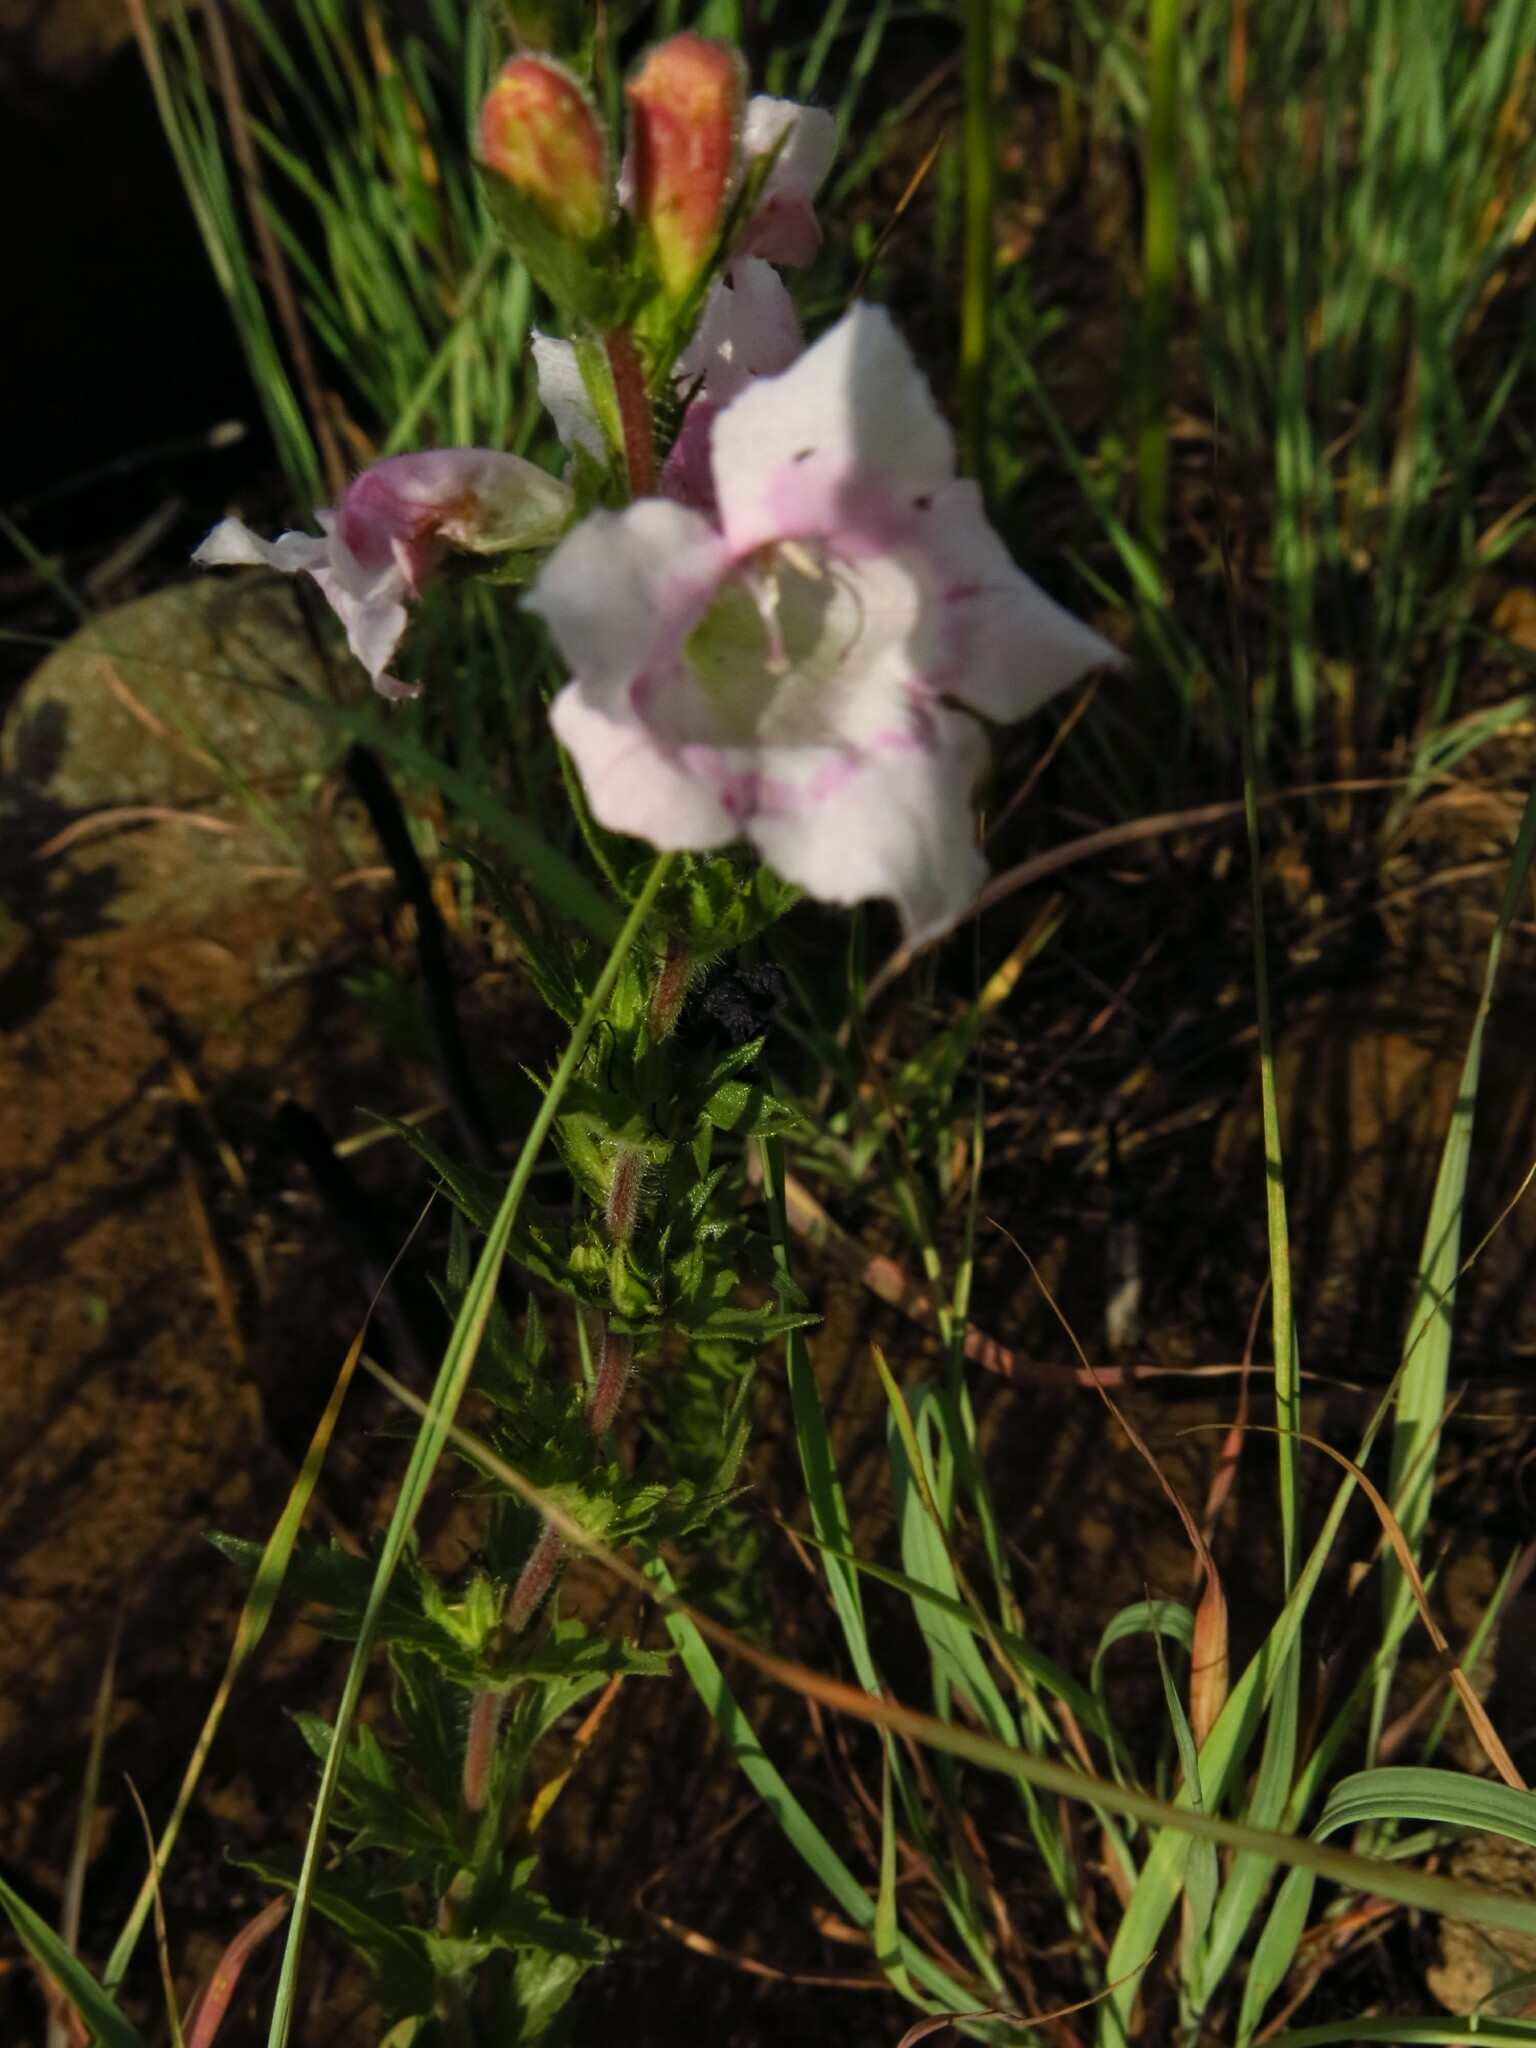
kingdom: Plantae
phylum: Tracheophyta
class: Magnoliopsida
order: Lamiales
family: Orobanchaceae
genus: Graderia
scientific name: Graderia scabra
